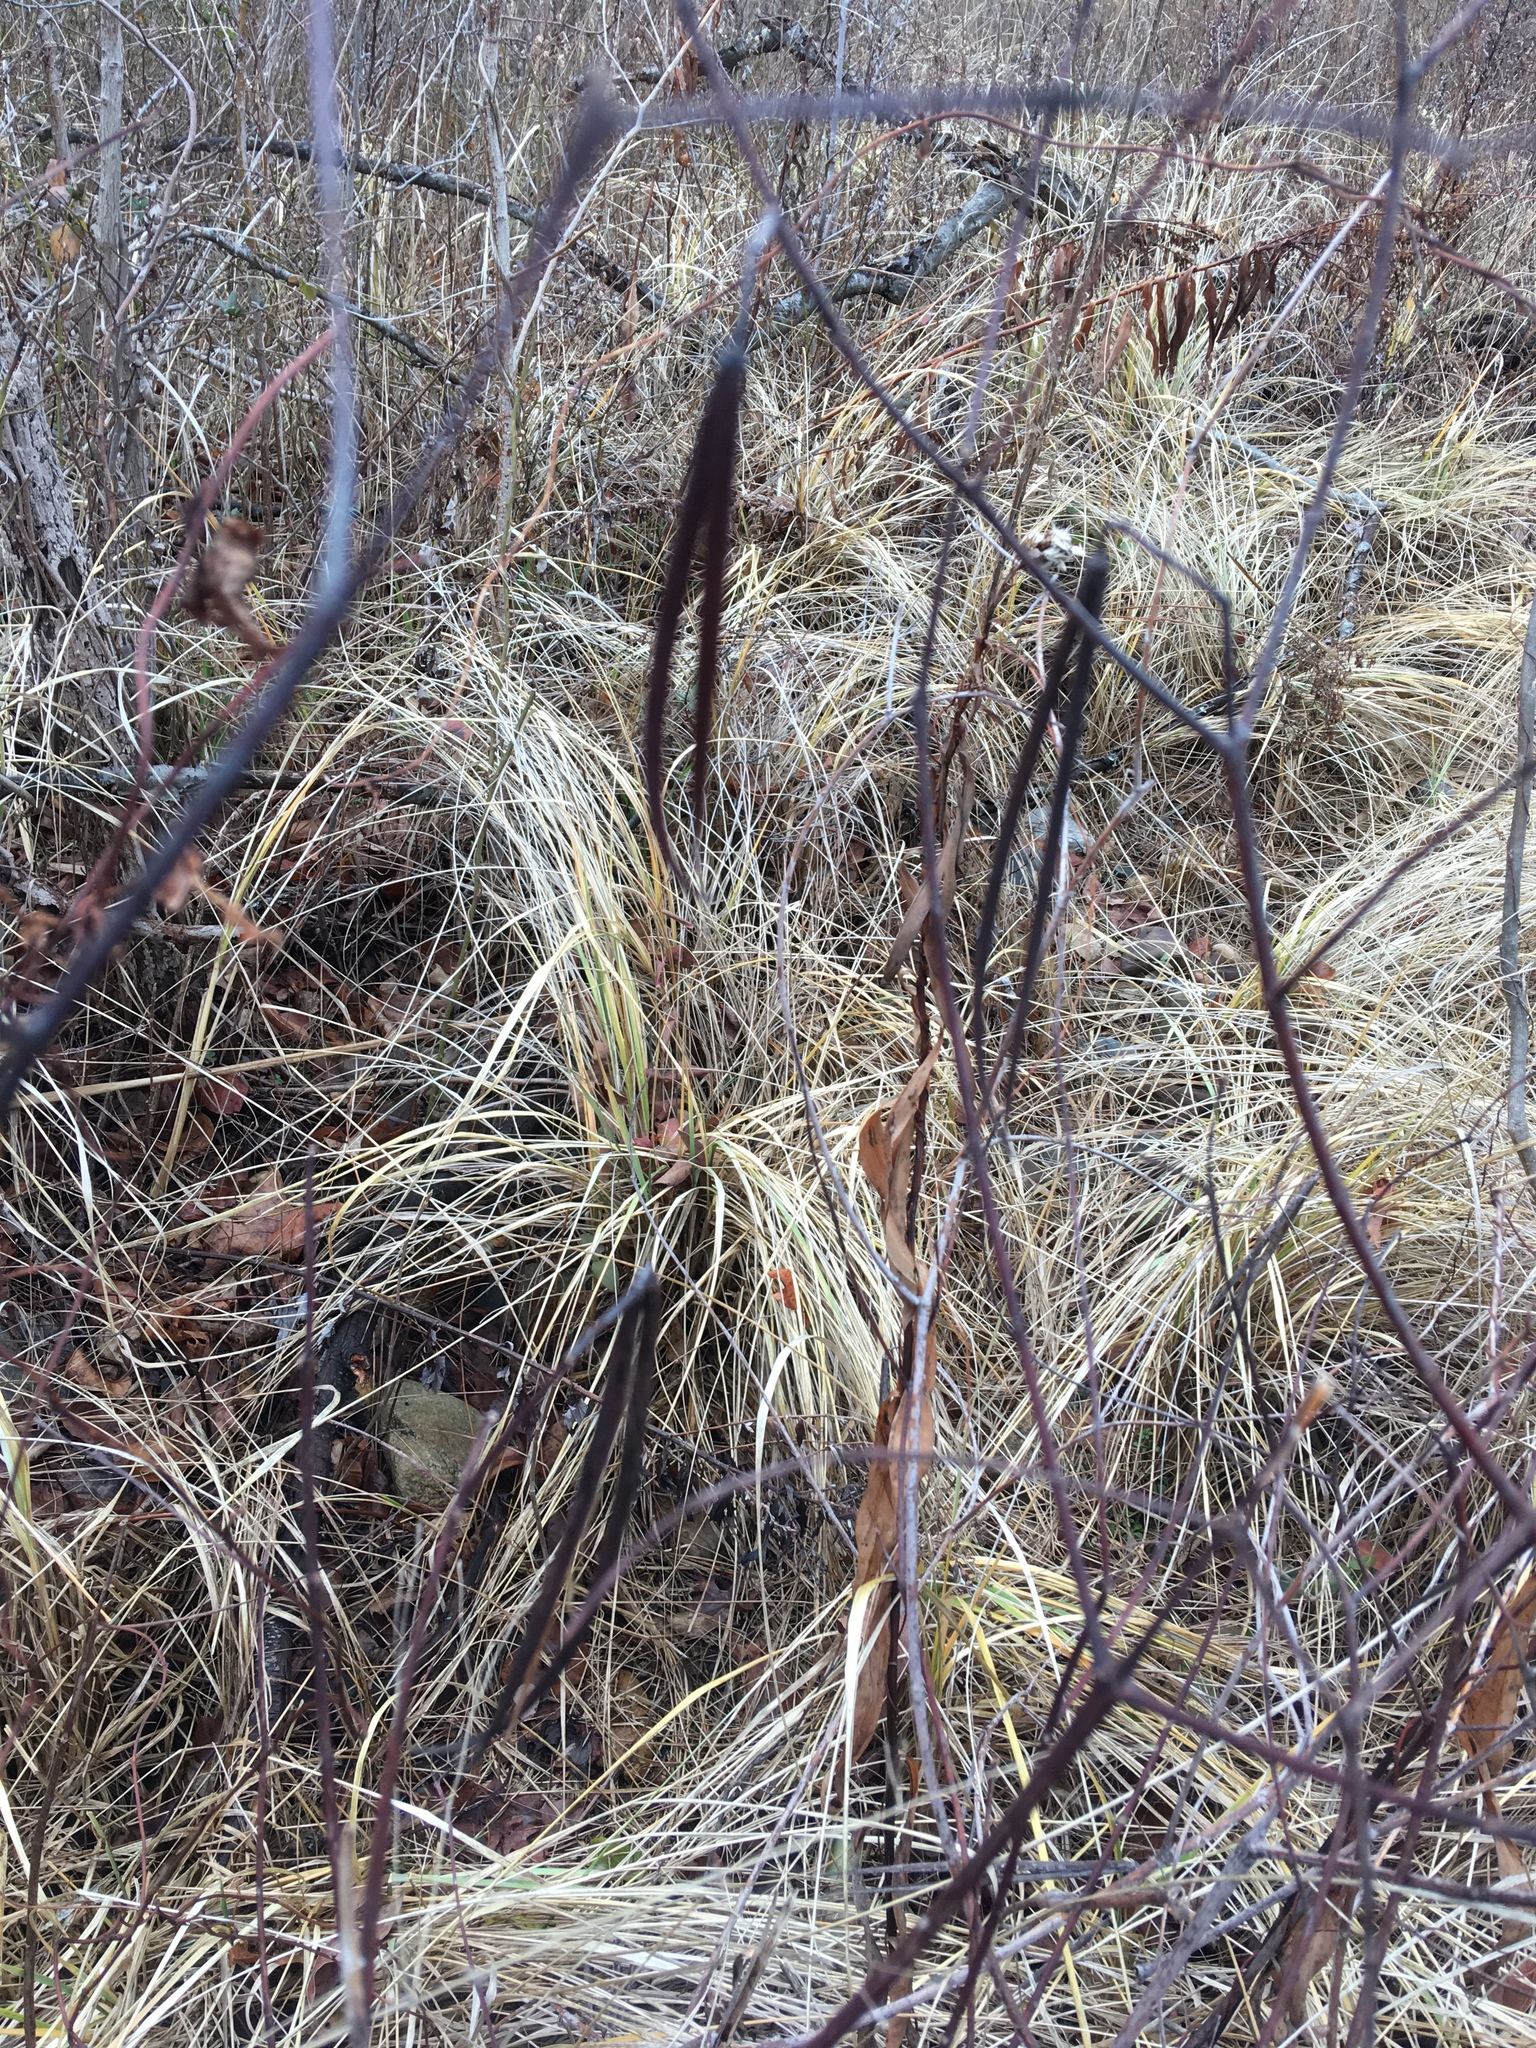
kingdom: Plantae
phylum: Tracheophyta
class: Magnoliopsida
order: Gentianales
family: Apocynaceae
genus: Apocynum
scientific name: Apocynum cannabinum
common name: Hemp dogbane
